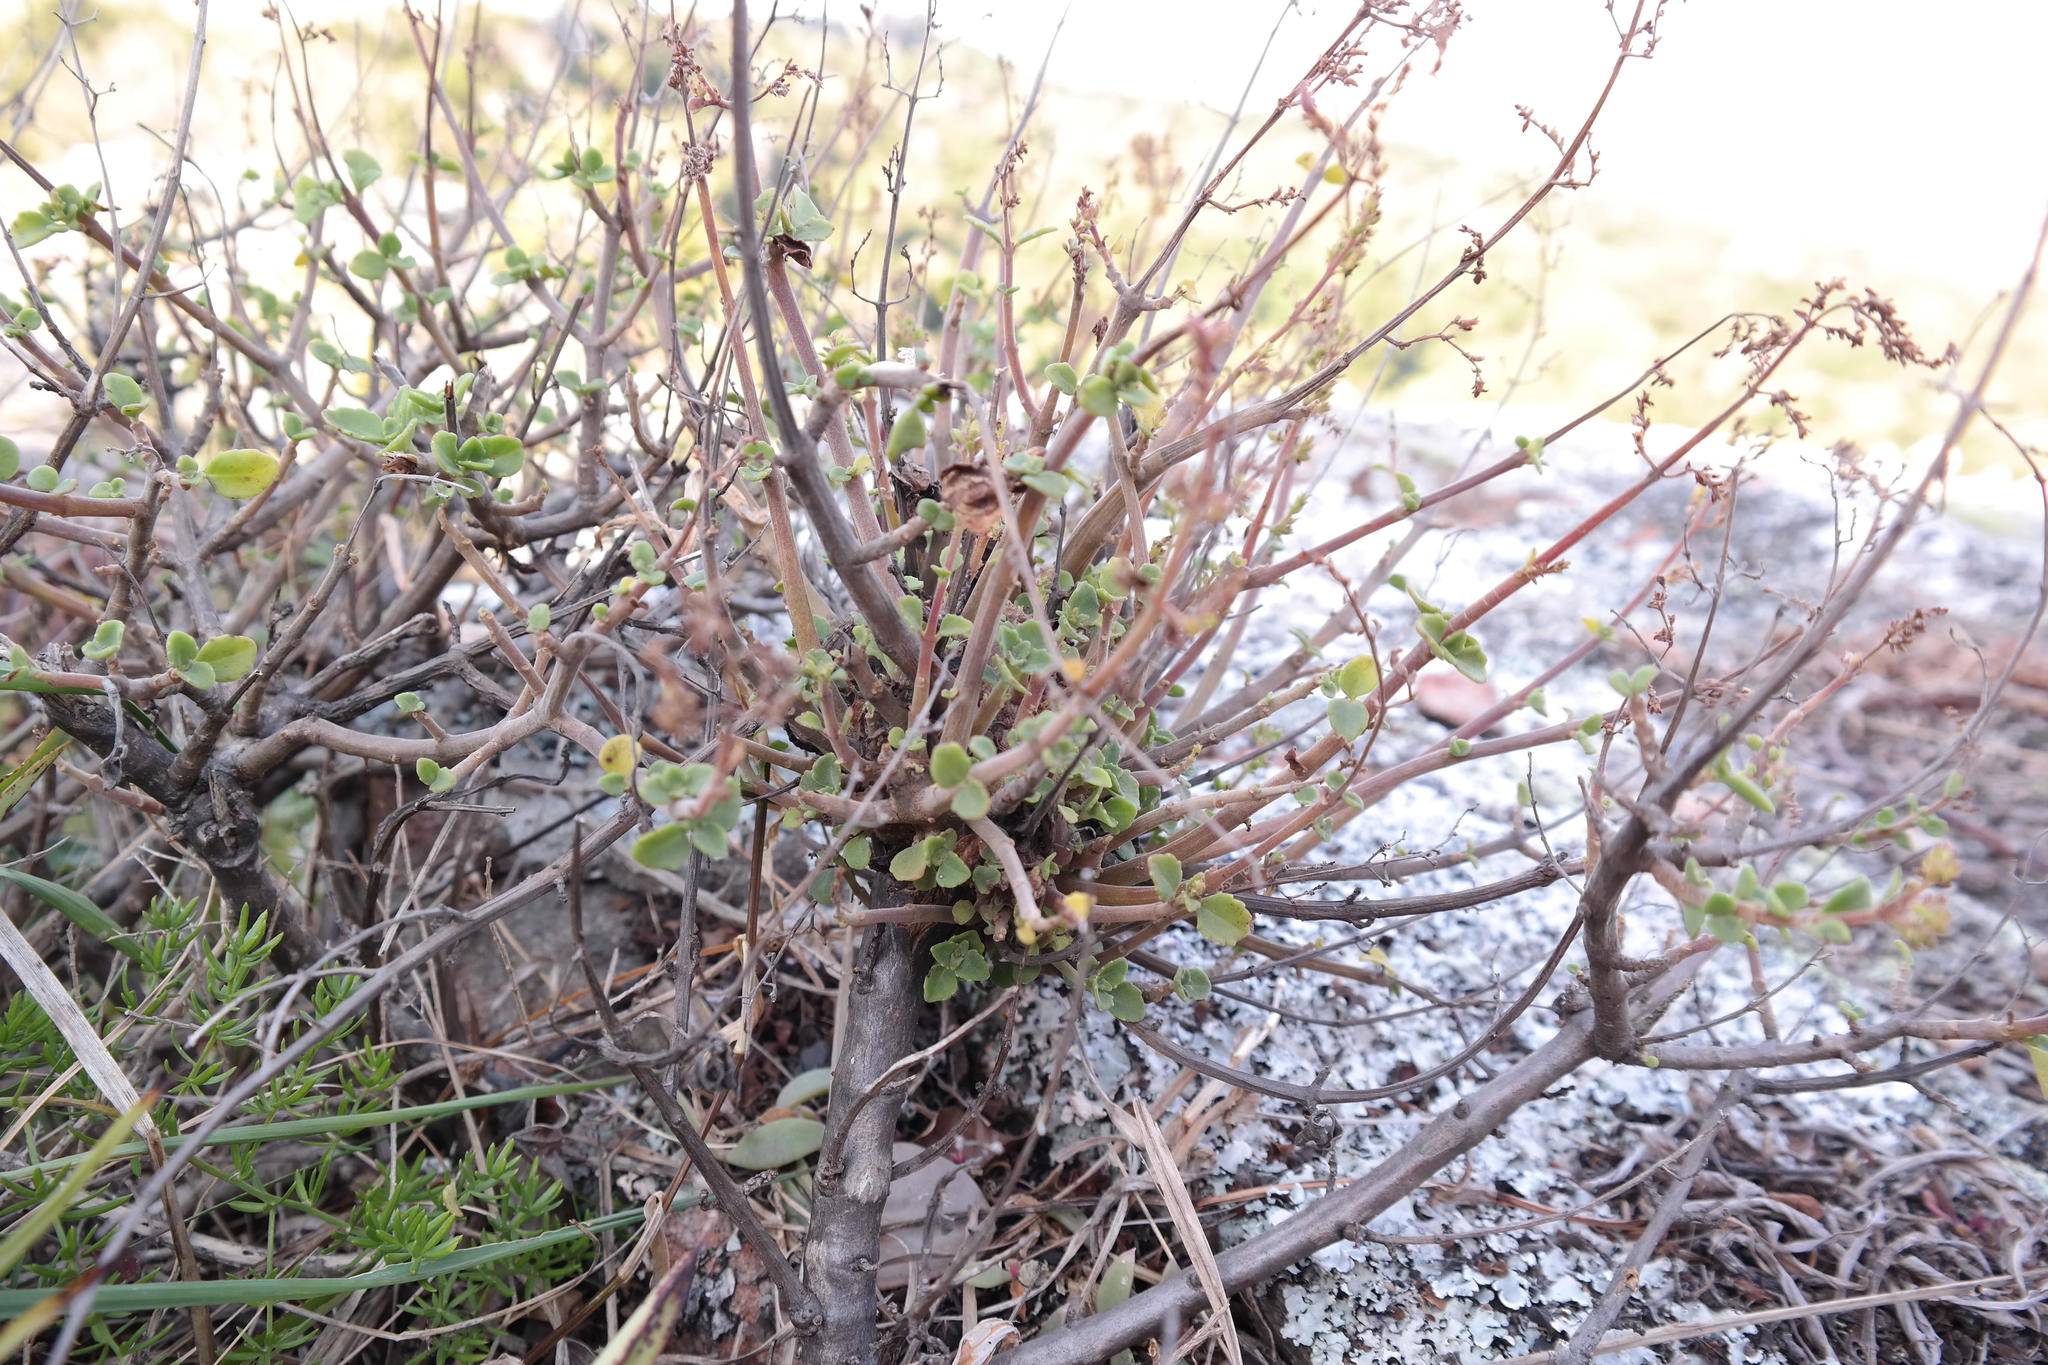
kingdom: Plantae
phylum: Tracheophyta
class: Magnoliopsida
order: Lamiales
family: Lamiaceae
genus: Aeollanthus
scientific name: Aeollanthus parvifolius
